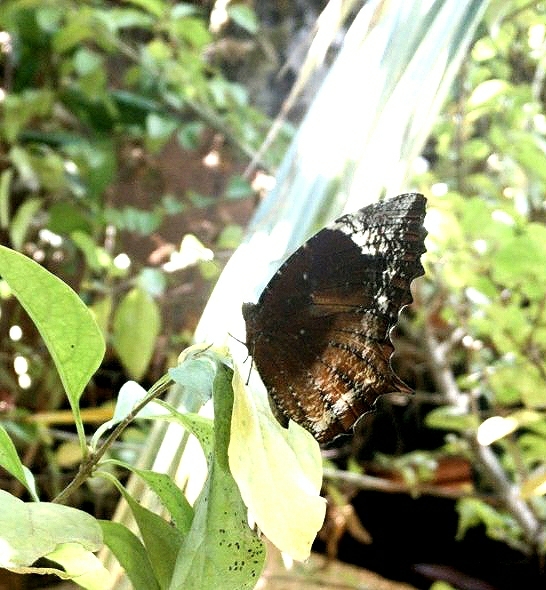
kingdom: Animalia
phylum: Arthropoda
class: Insecta
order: Lepidoptera
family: Nymphalidae
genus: Elymnias
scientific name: Elymnias caudata
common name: Tailed palmfly
